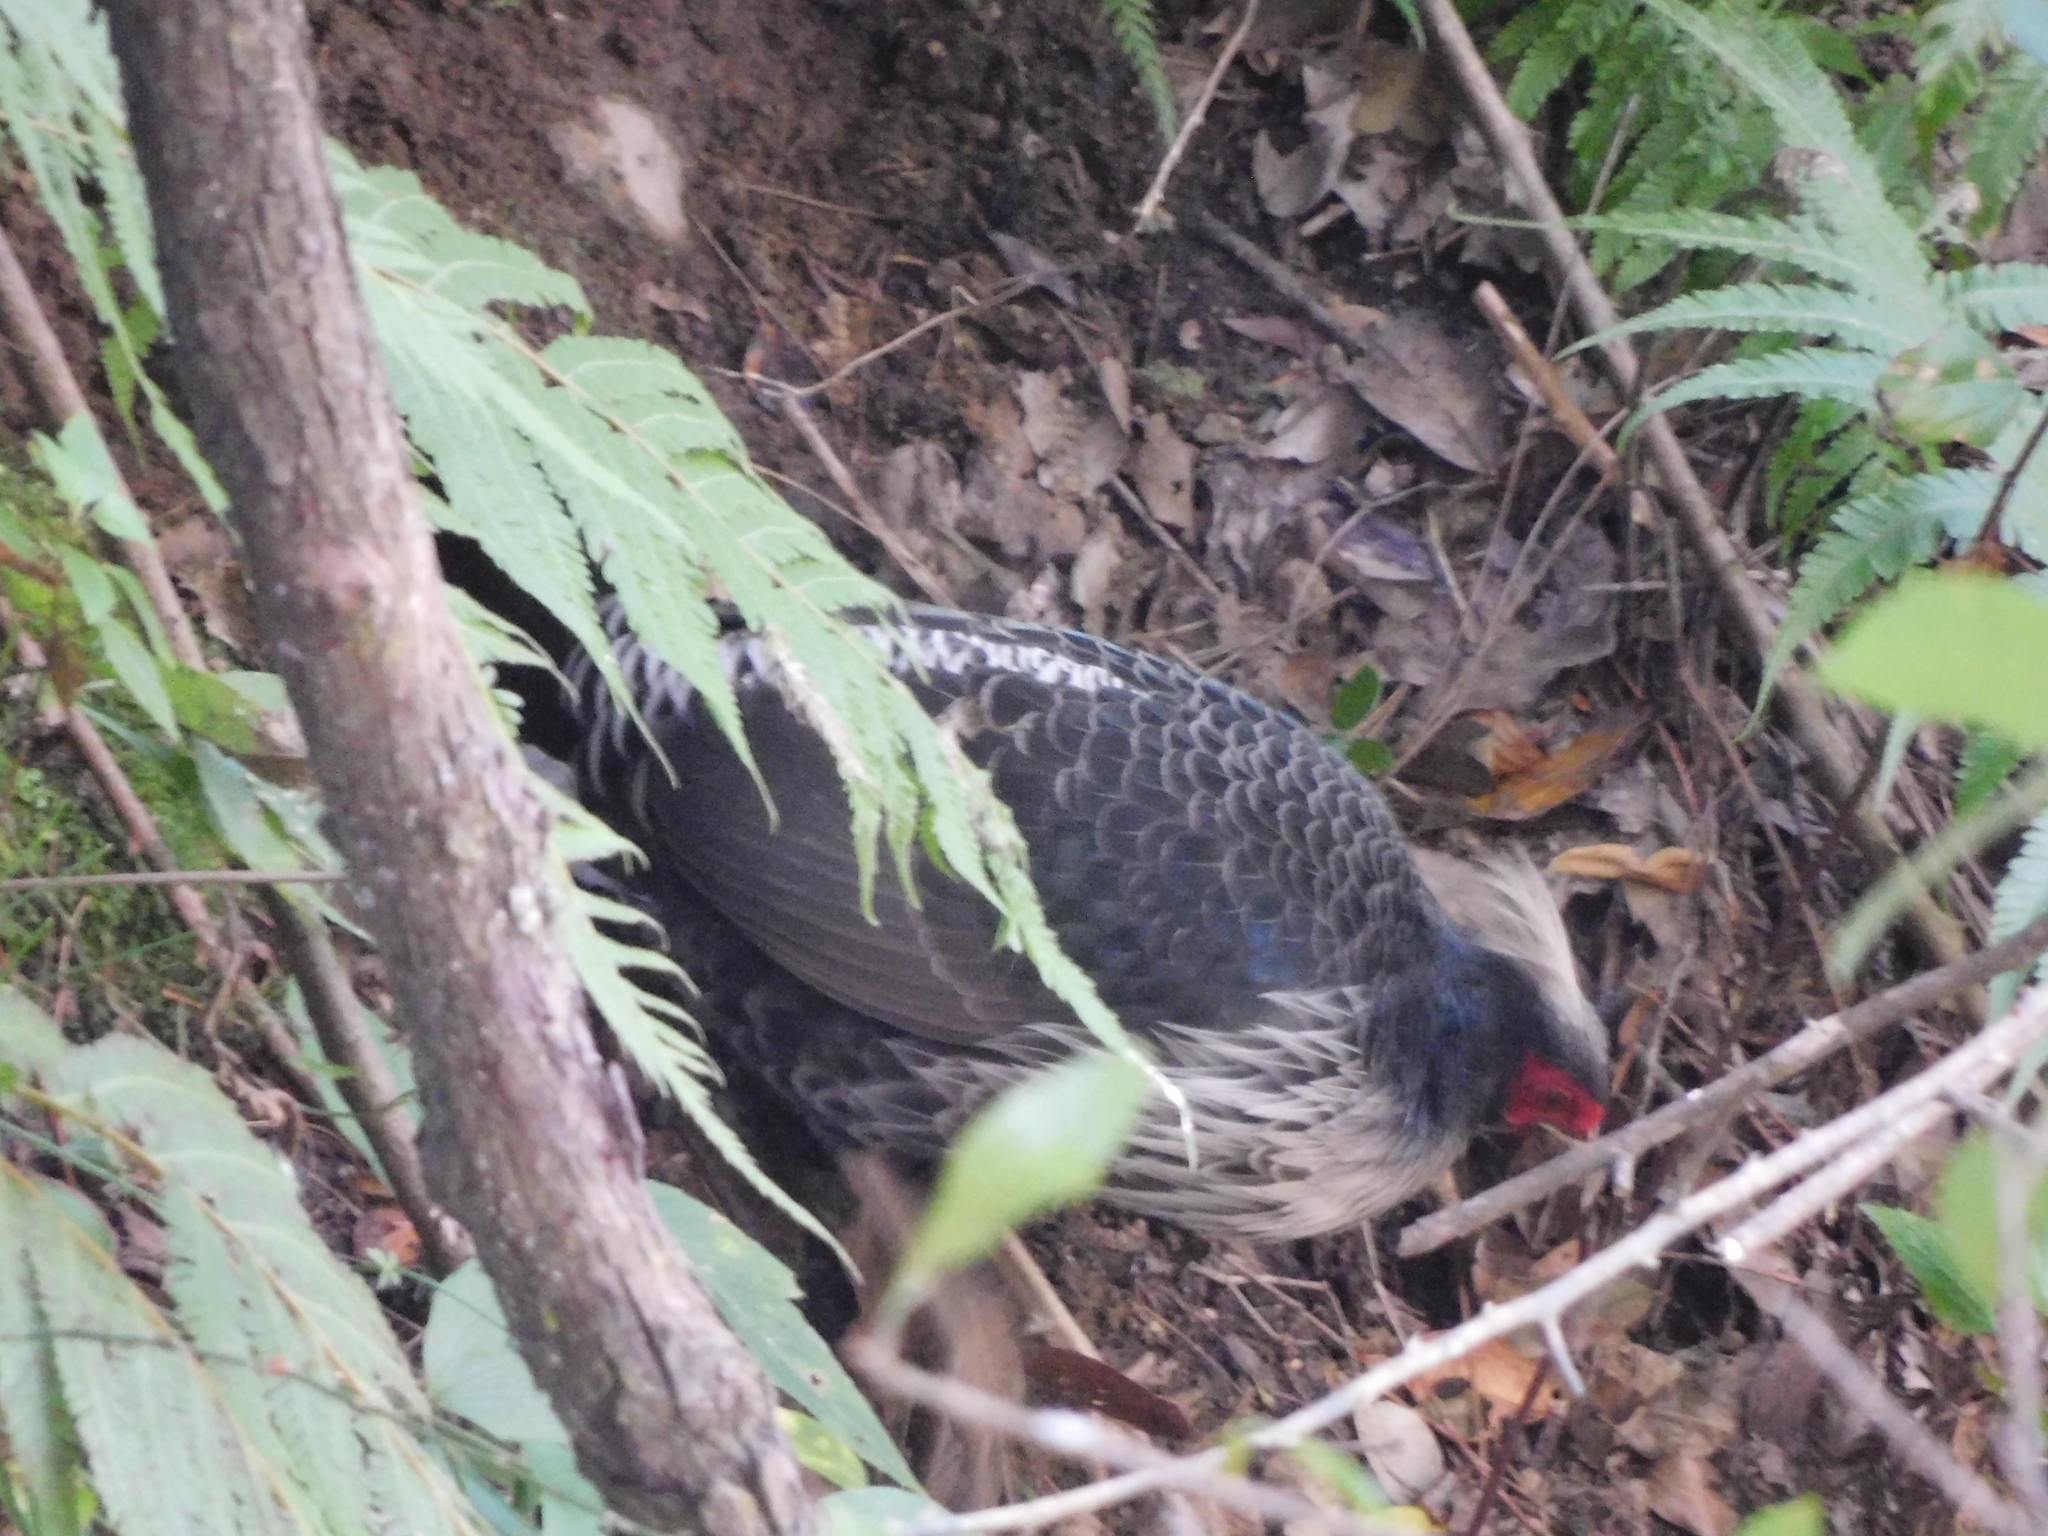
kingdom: Animalia
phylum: Chordata
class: Aves
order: Galliformes
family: Phasianidae
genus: Lophura
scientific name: Lophura leucomelanos
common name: Kalij pheasant
